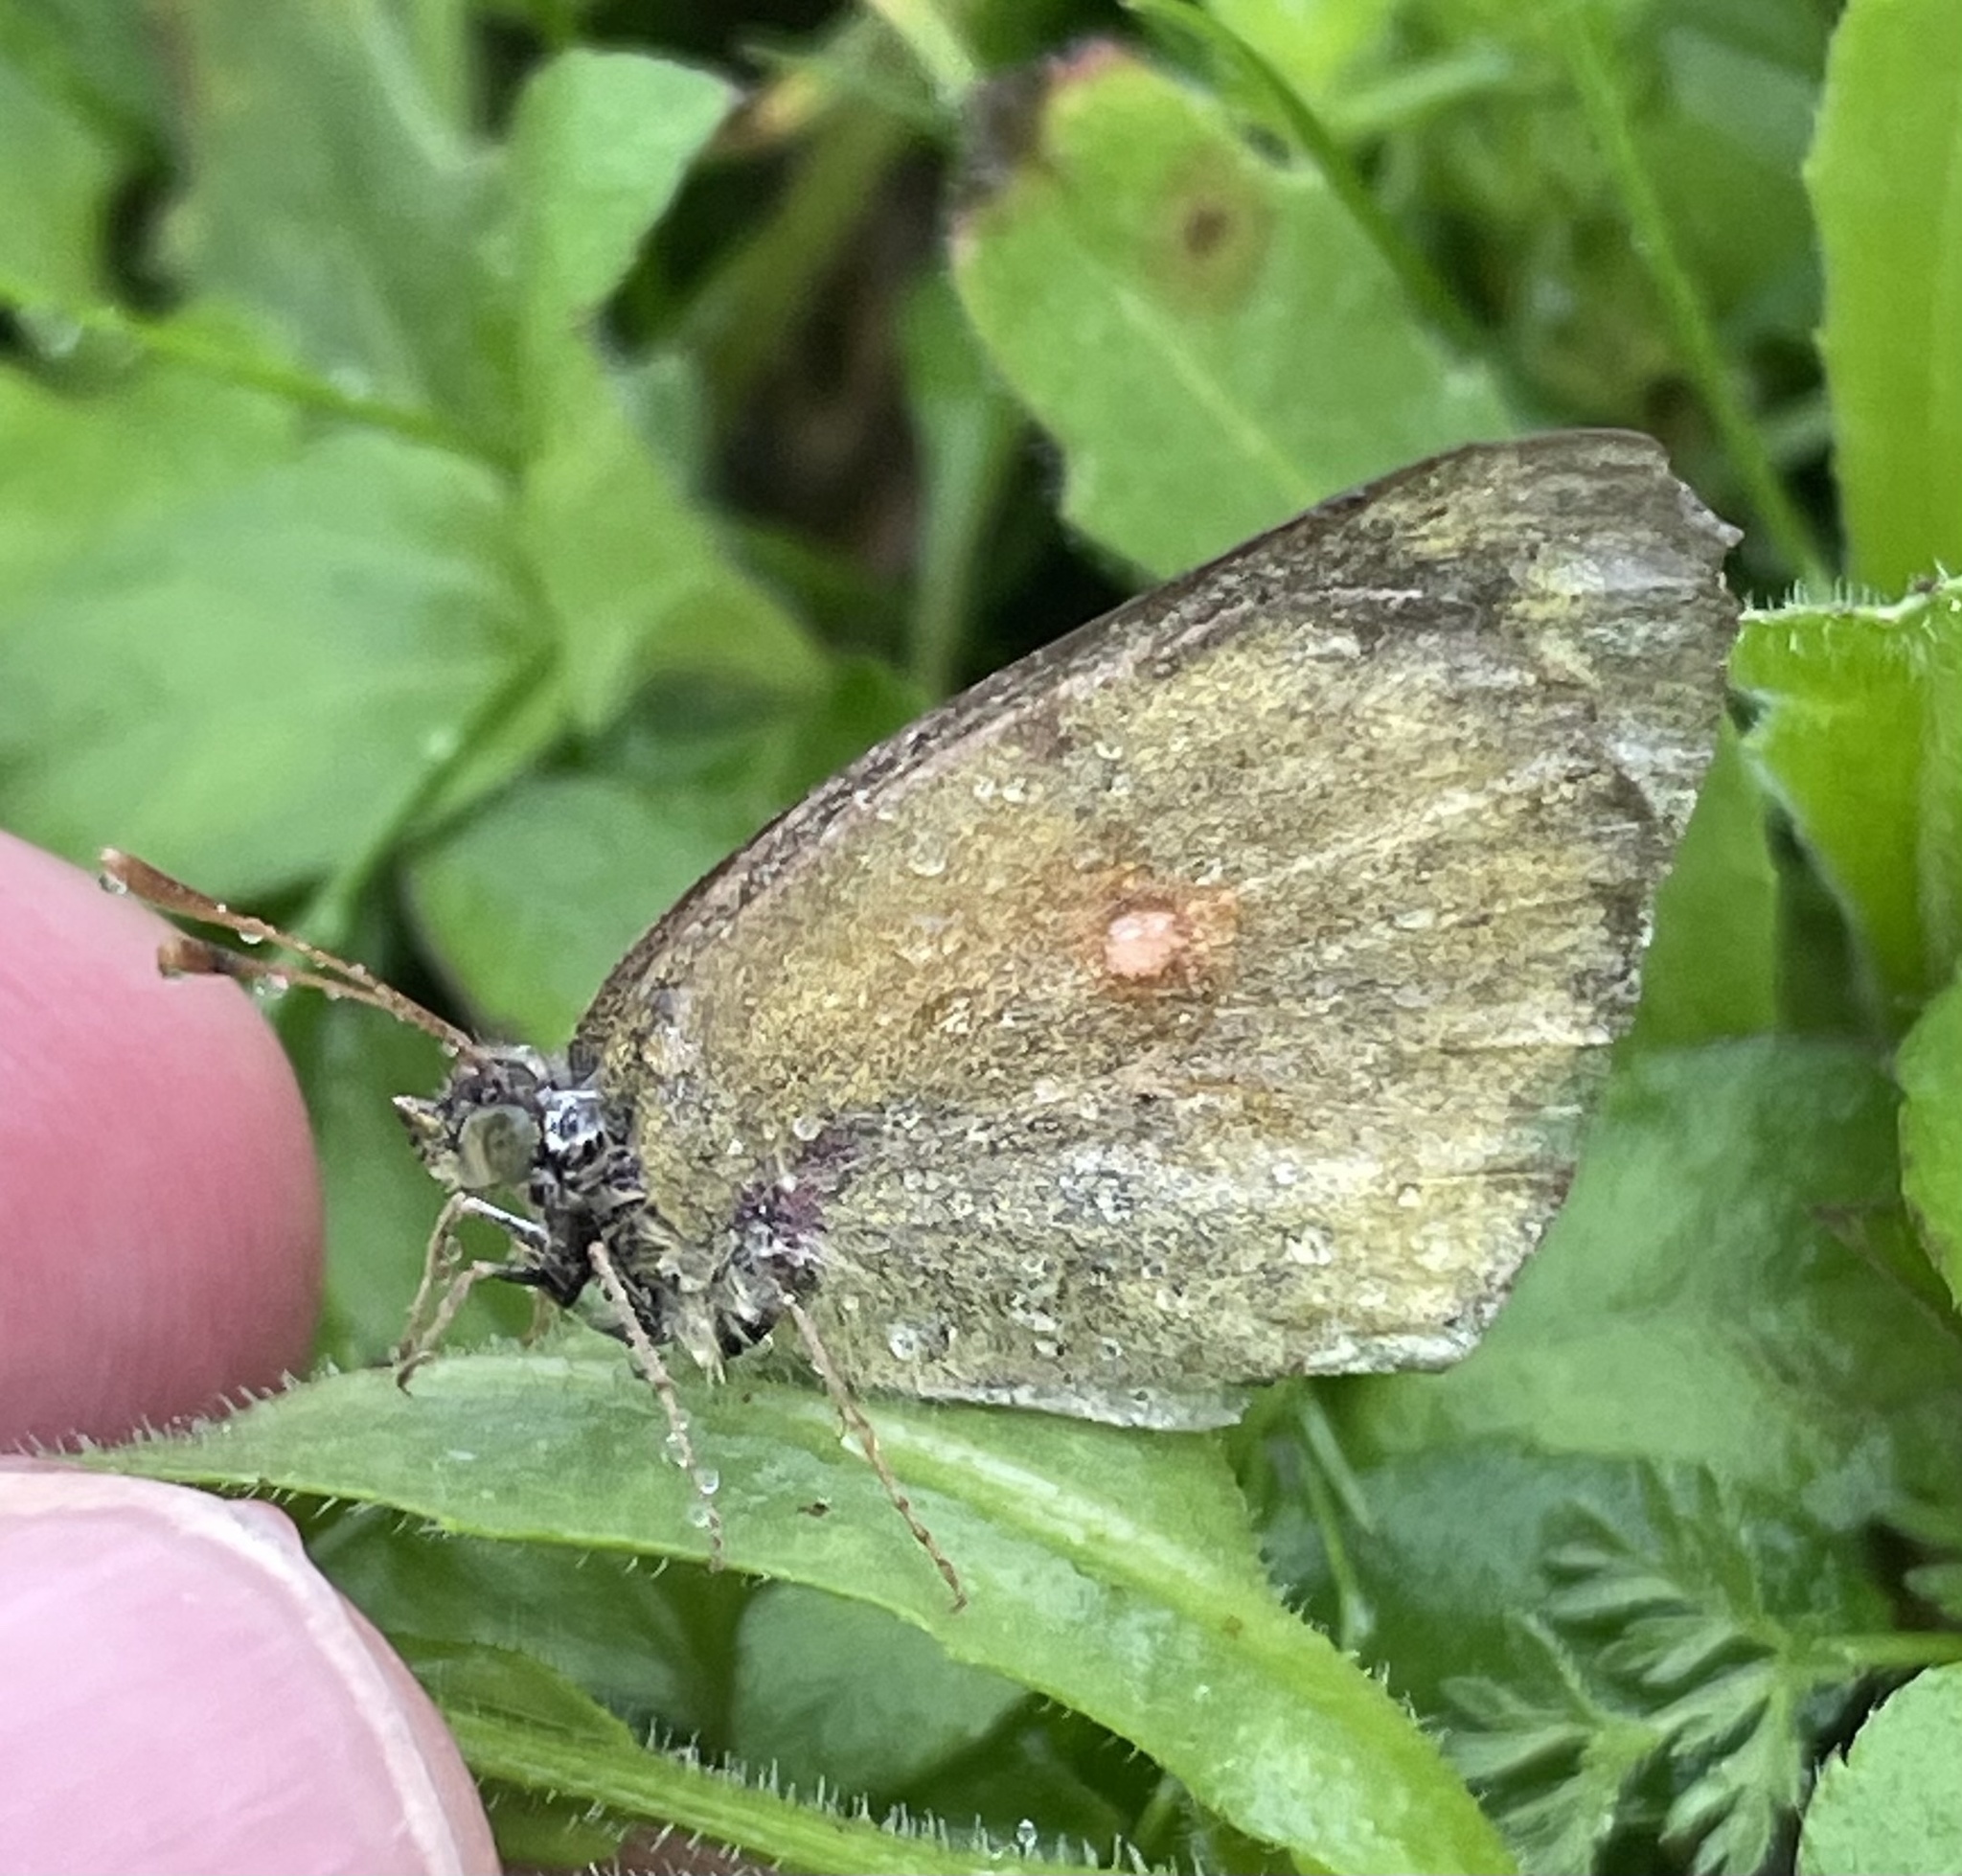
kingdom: Animalia
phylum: Arthropoda
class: Insecta
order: Lepidoptera
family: Pieridae
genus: Colias
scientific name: Colias eurytheme
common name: Alfalfa butterfly
